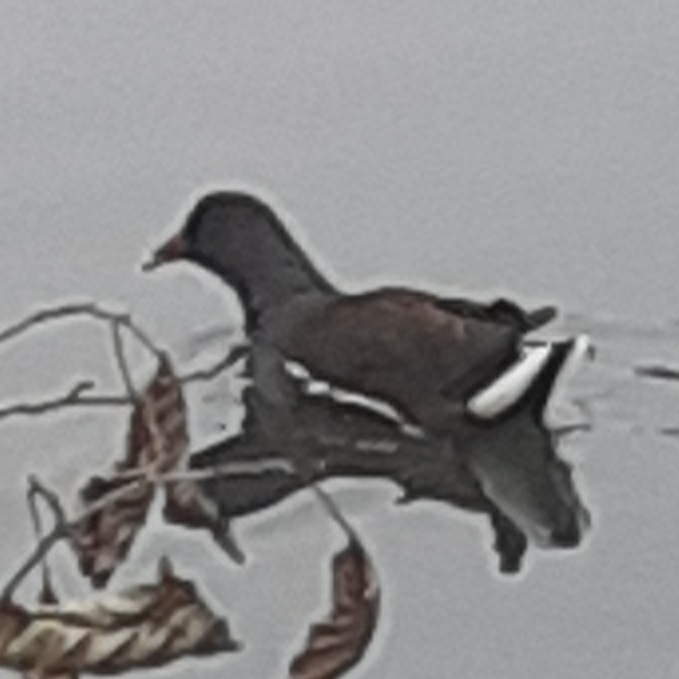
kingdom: Animalia
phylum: Chordata
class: Aves
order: Gruiformes
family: Rallidae
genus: Gallinula
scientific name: Gallinula chloropus
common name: Common moorhen
